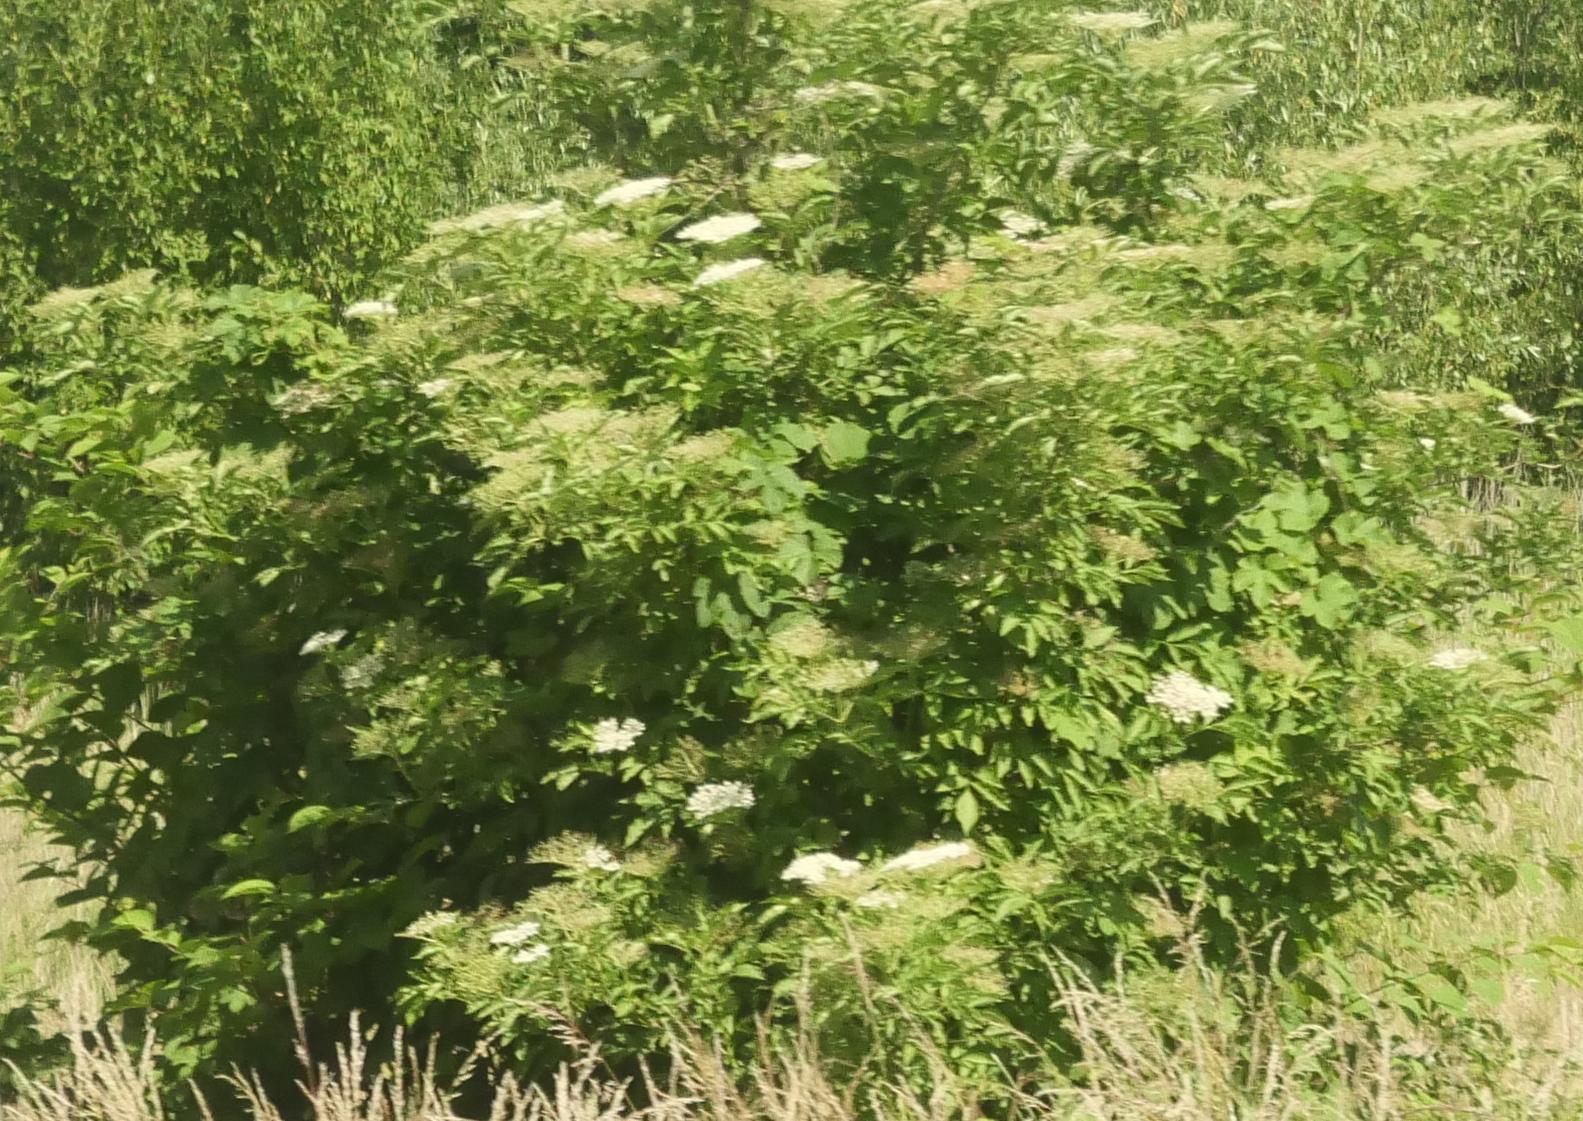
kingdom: Plantae
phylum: Tracheophyta
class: Magnoliopsida
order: Dipsacales
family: Viburnaceae
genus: Sambucus
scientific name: Sambucus nigra
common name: Elder
